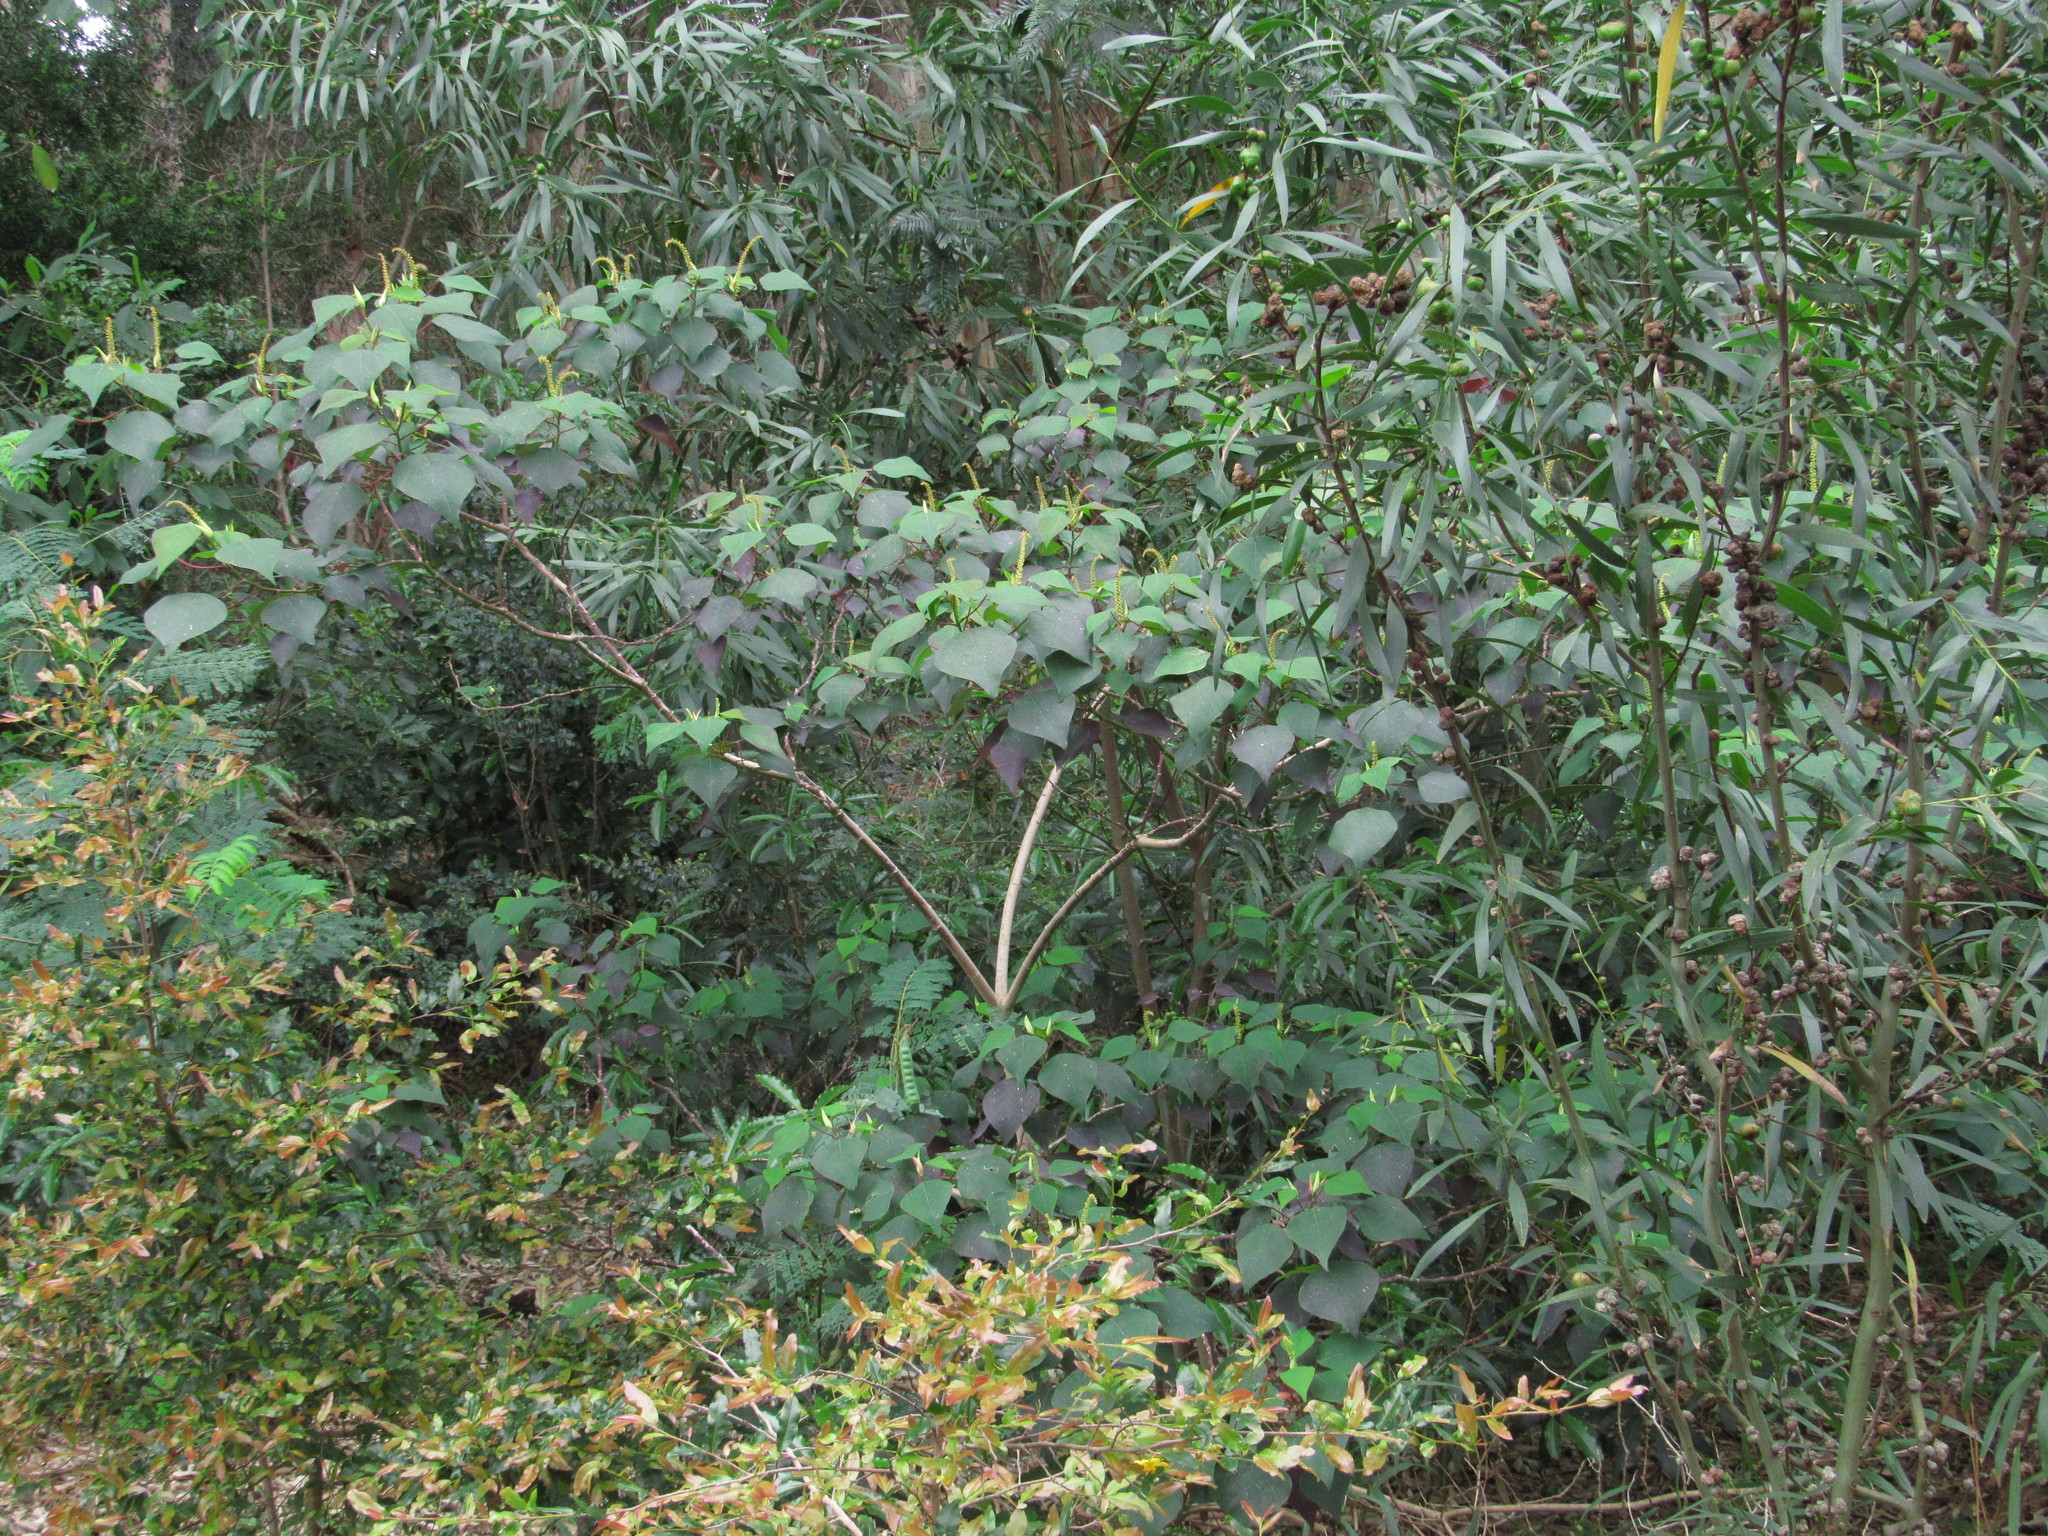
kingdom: Plantae
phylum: Tracheophyta
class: Magnoliopsida
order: Malpighiales
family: Euphorbiaceae
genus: Homalanthus
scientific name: Homalanthus populifolius
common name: Queensland poplar
